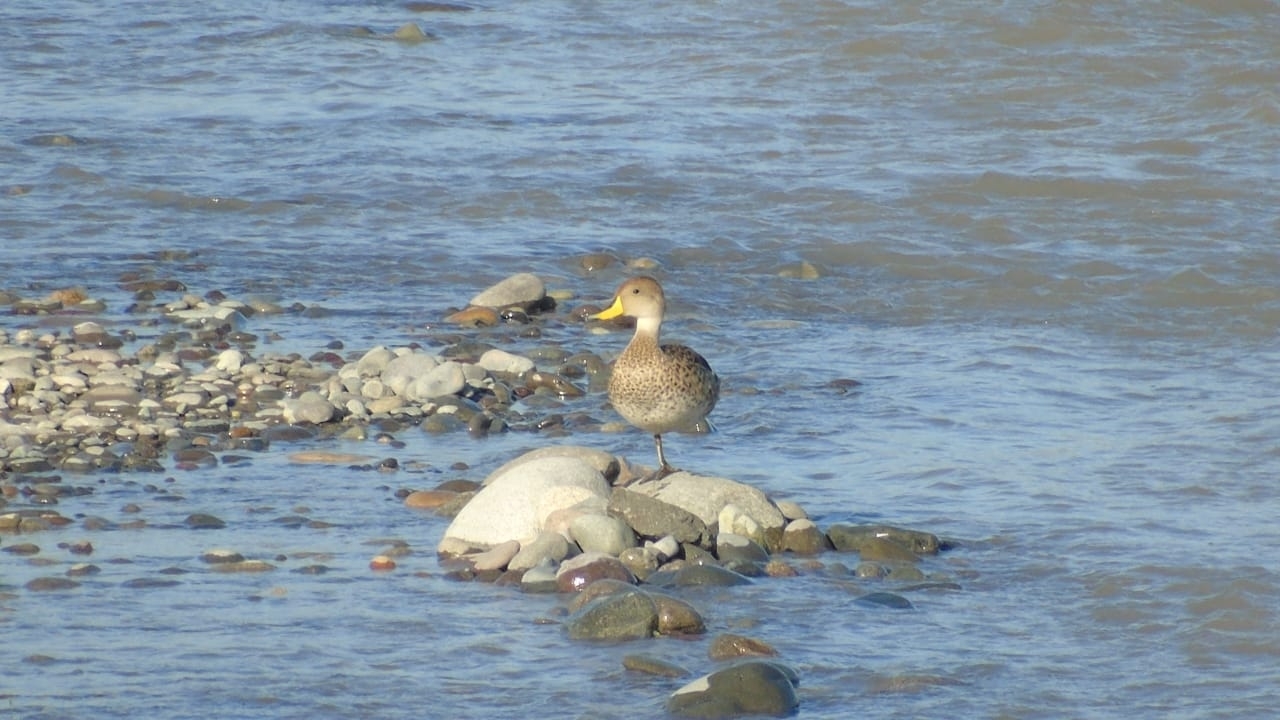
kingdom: Animalia
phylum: Chordata
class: Aves
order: Anseriformes
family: Anatidae
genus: Anas
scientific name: Anas georgica
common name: Yellow-billed pintail
